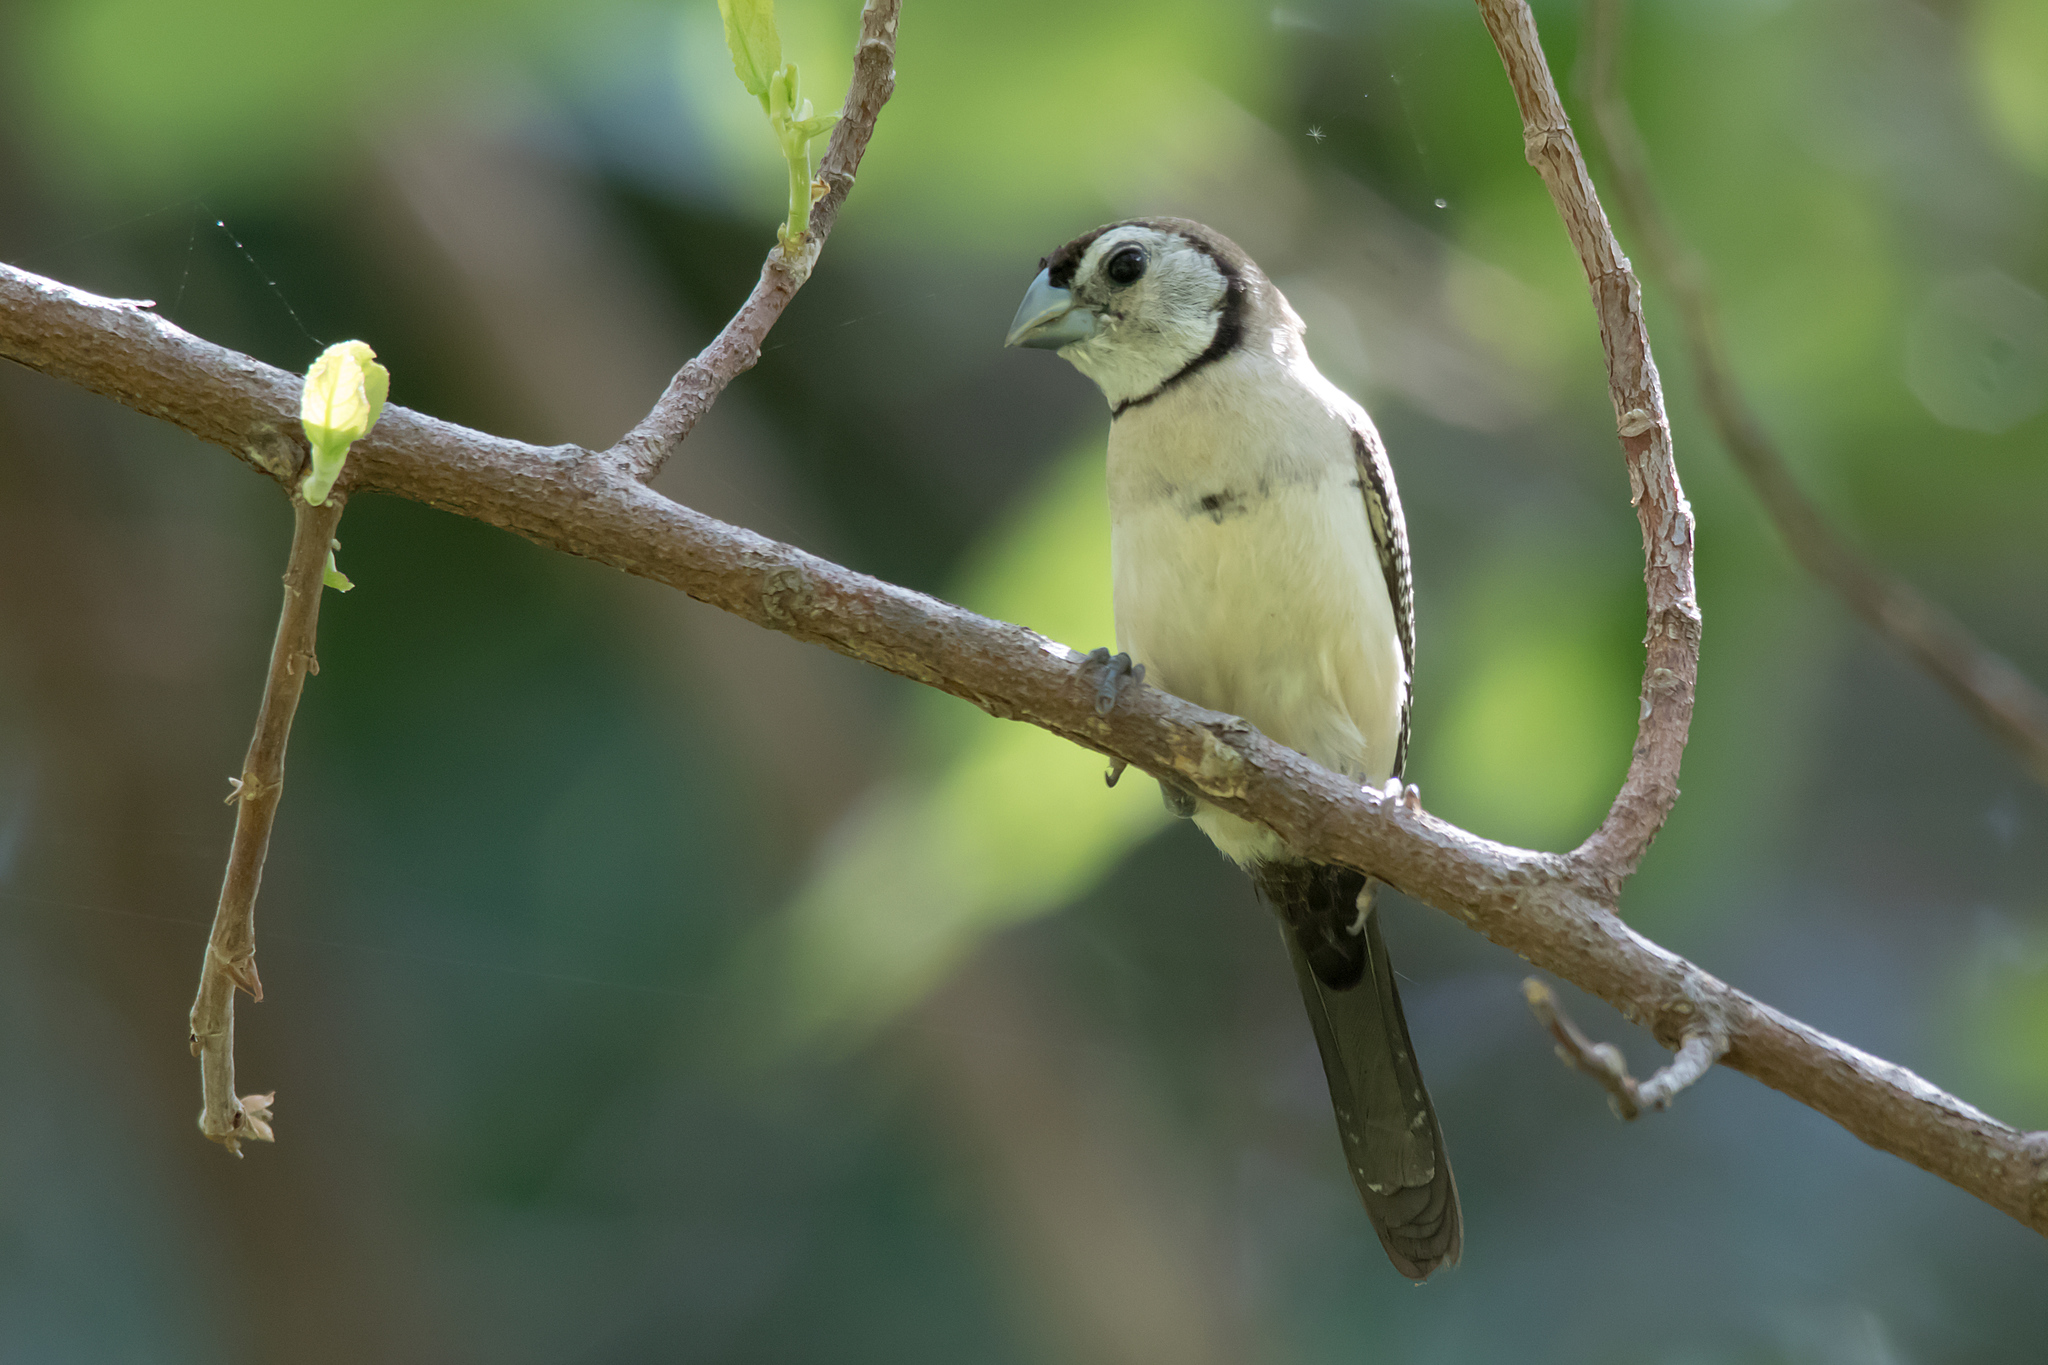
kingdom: Animalia
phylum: Chordata
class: Aves
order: Passeriformes
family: Estrildidae
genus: Taeniopygia
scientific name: Taeniopygia bichenovii
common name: Double-barred finch
